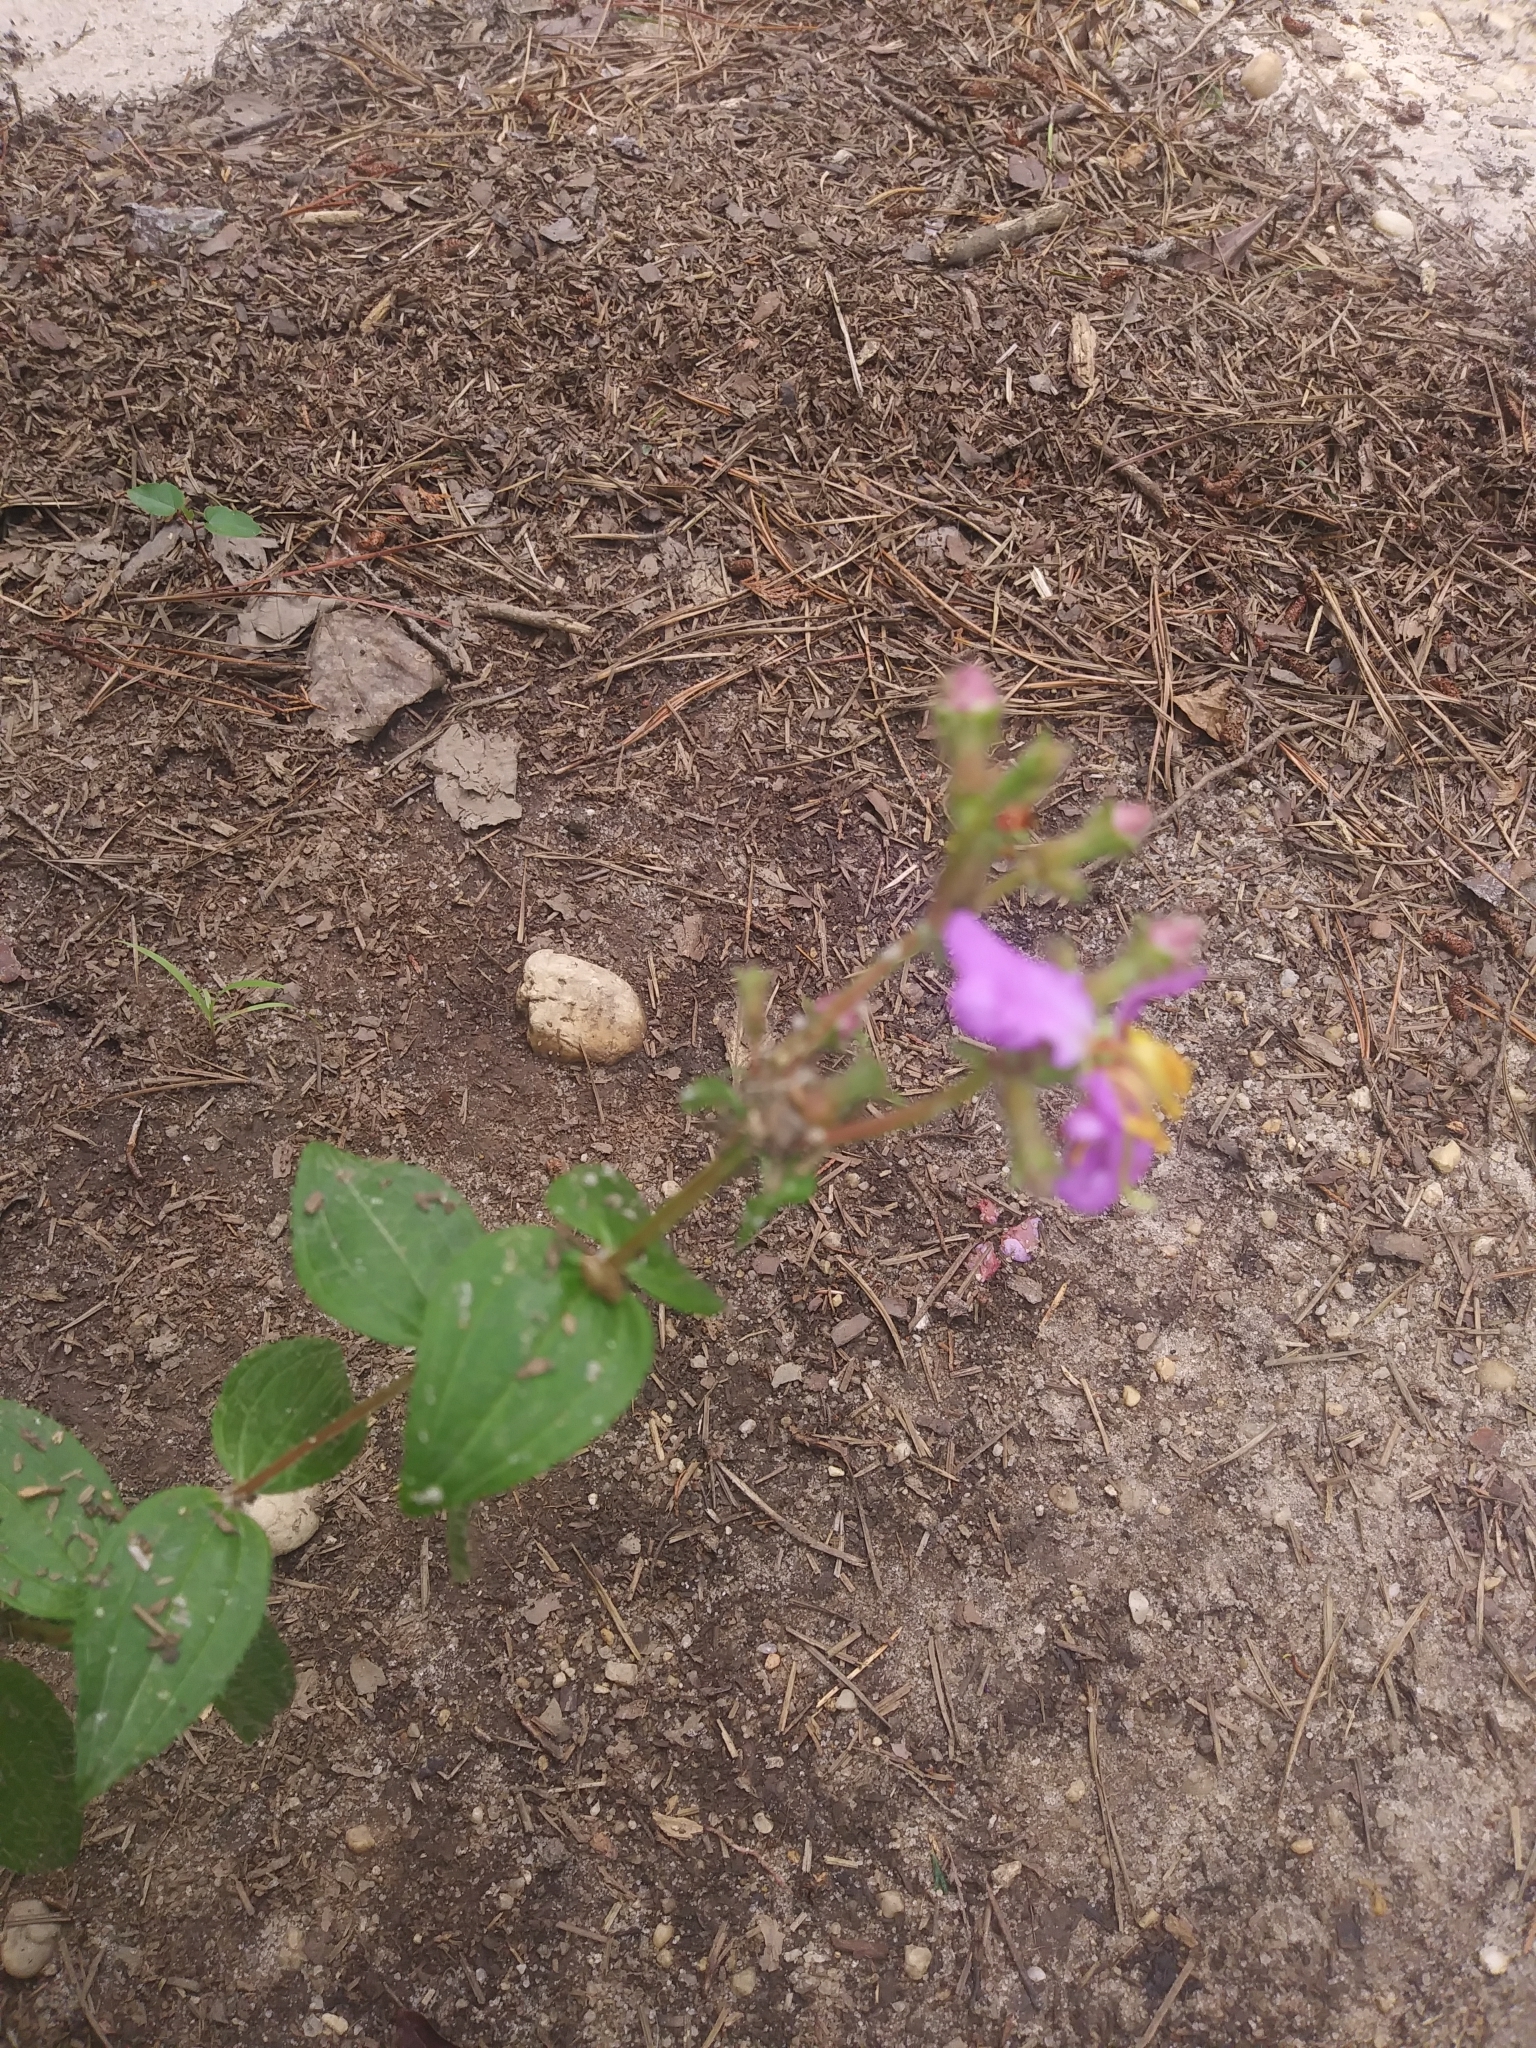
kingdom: Plantae
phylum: Tracheophyta
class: Magnoliopsida
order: Myrtales
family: Melastomataceae
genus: Rhexia
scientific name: Rhexia virginica
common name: Common meadow beauty
